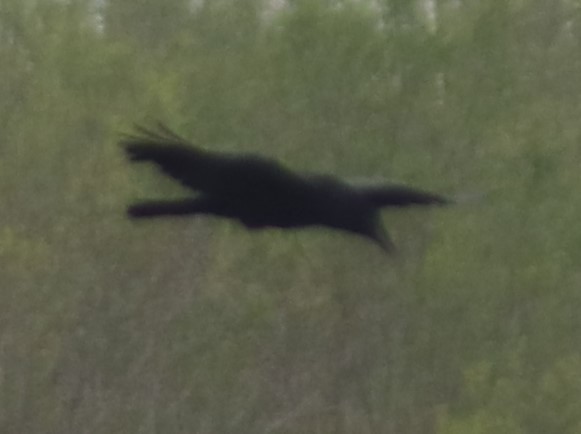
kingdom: Animalia
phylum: Chordata
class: Aves
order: Passeriformes
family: Corvidae
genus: Corvus
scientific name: Corvus corax
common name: Common raven
